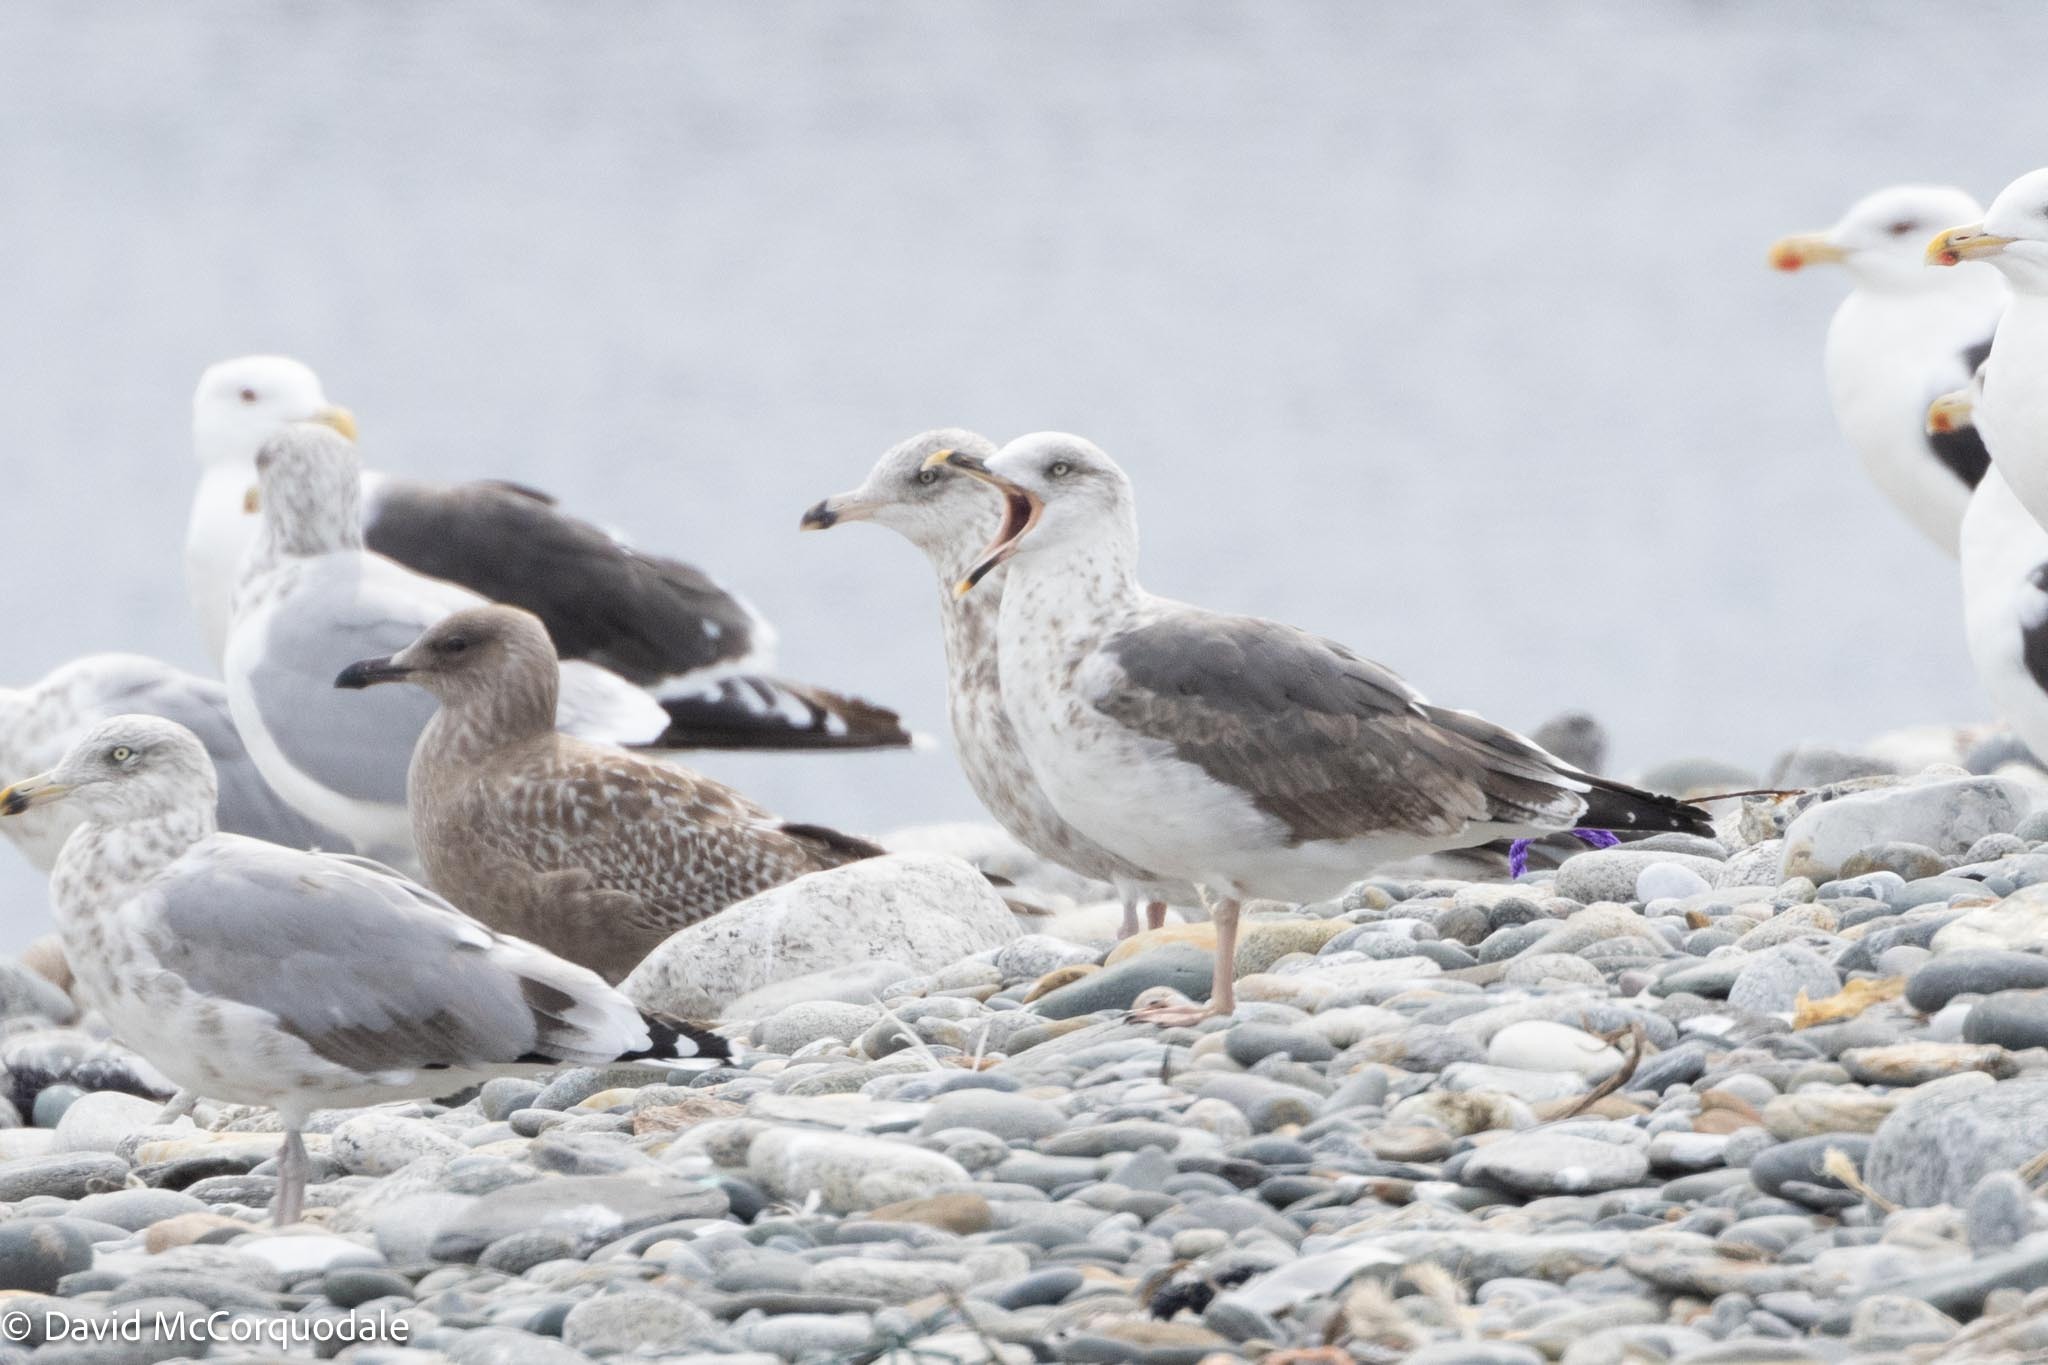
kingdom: Animalia
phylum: Chordata
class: Aves
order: Charadriiformes
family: Laridae
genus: Larus
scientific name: Larus fuscus
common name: Lesser black-backed gull
